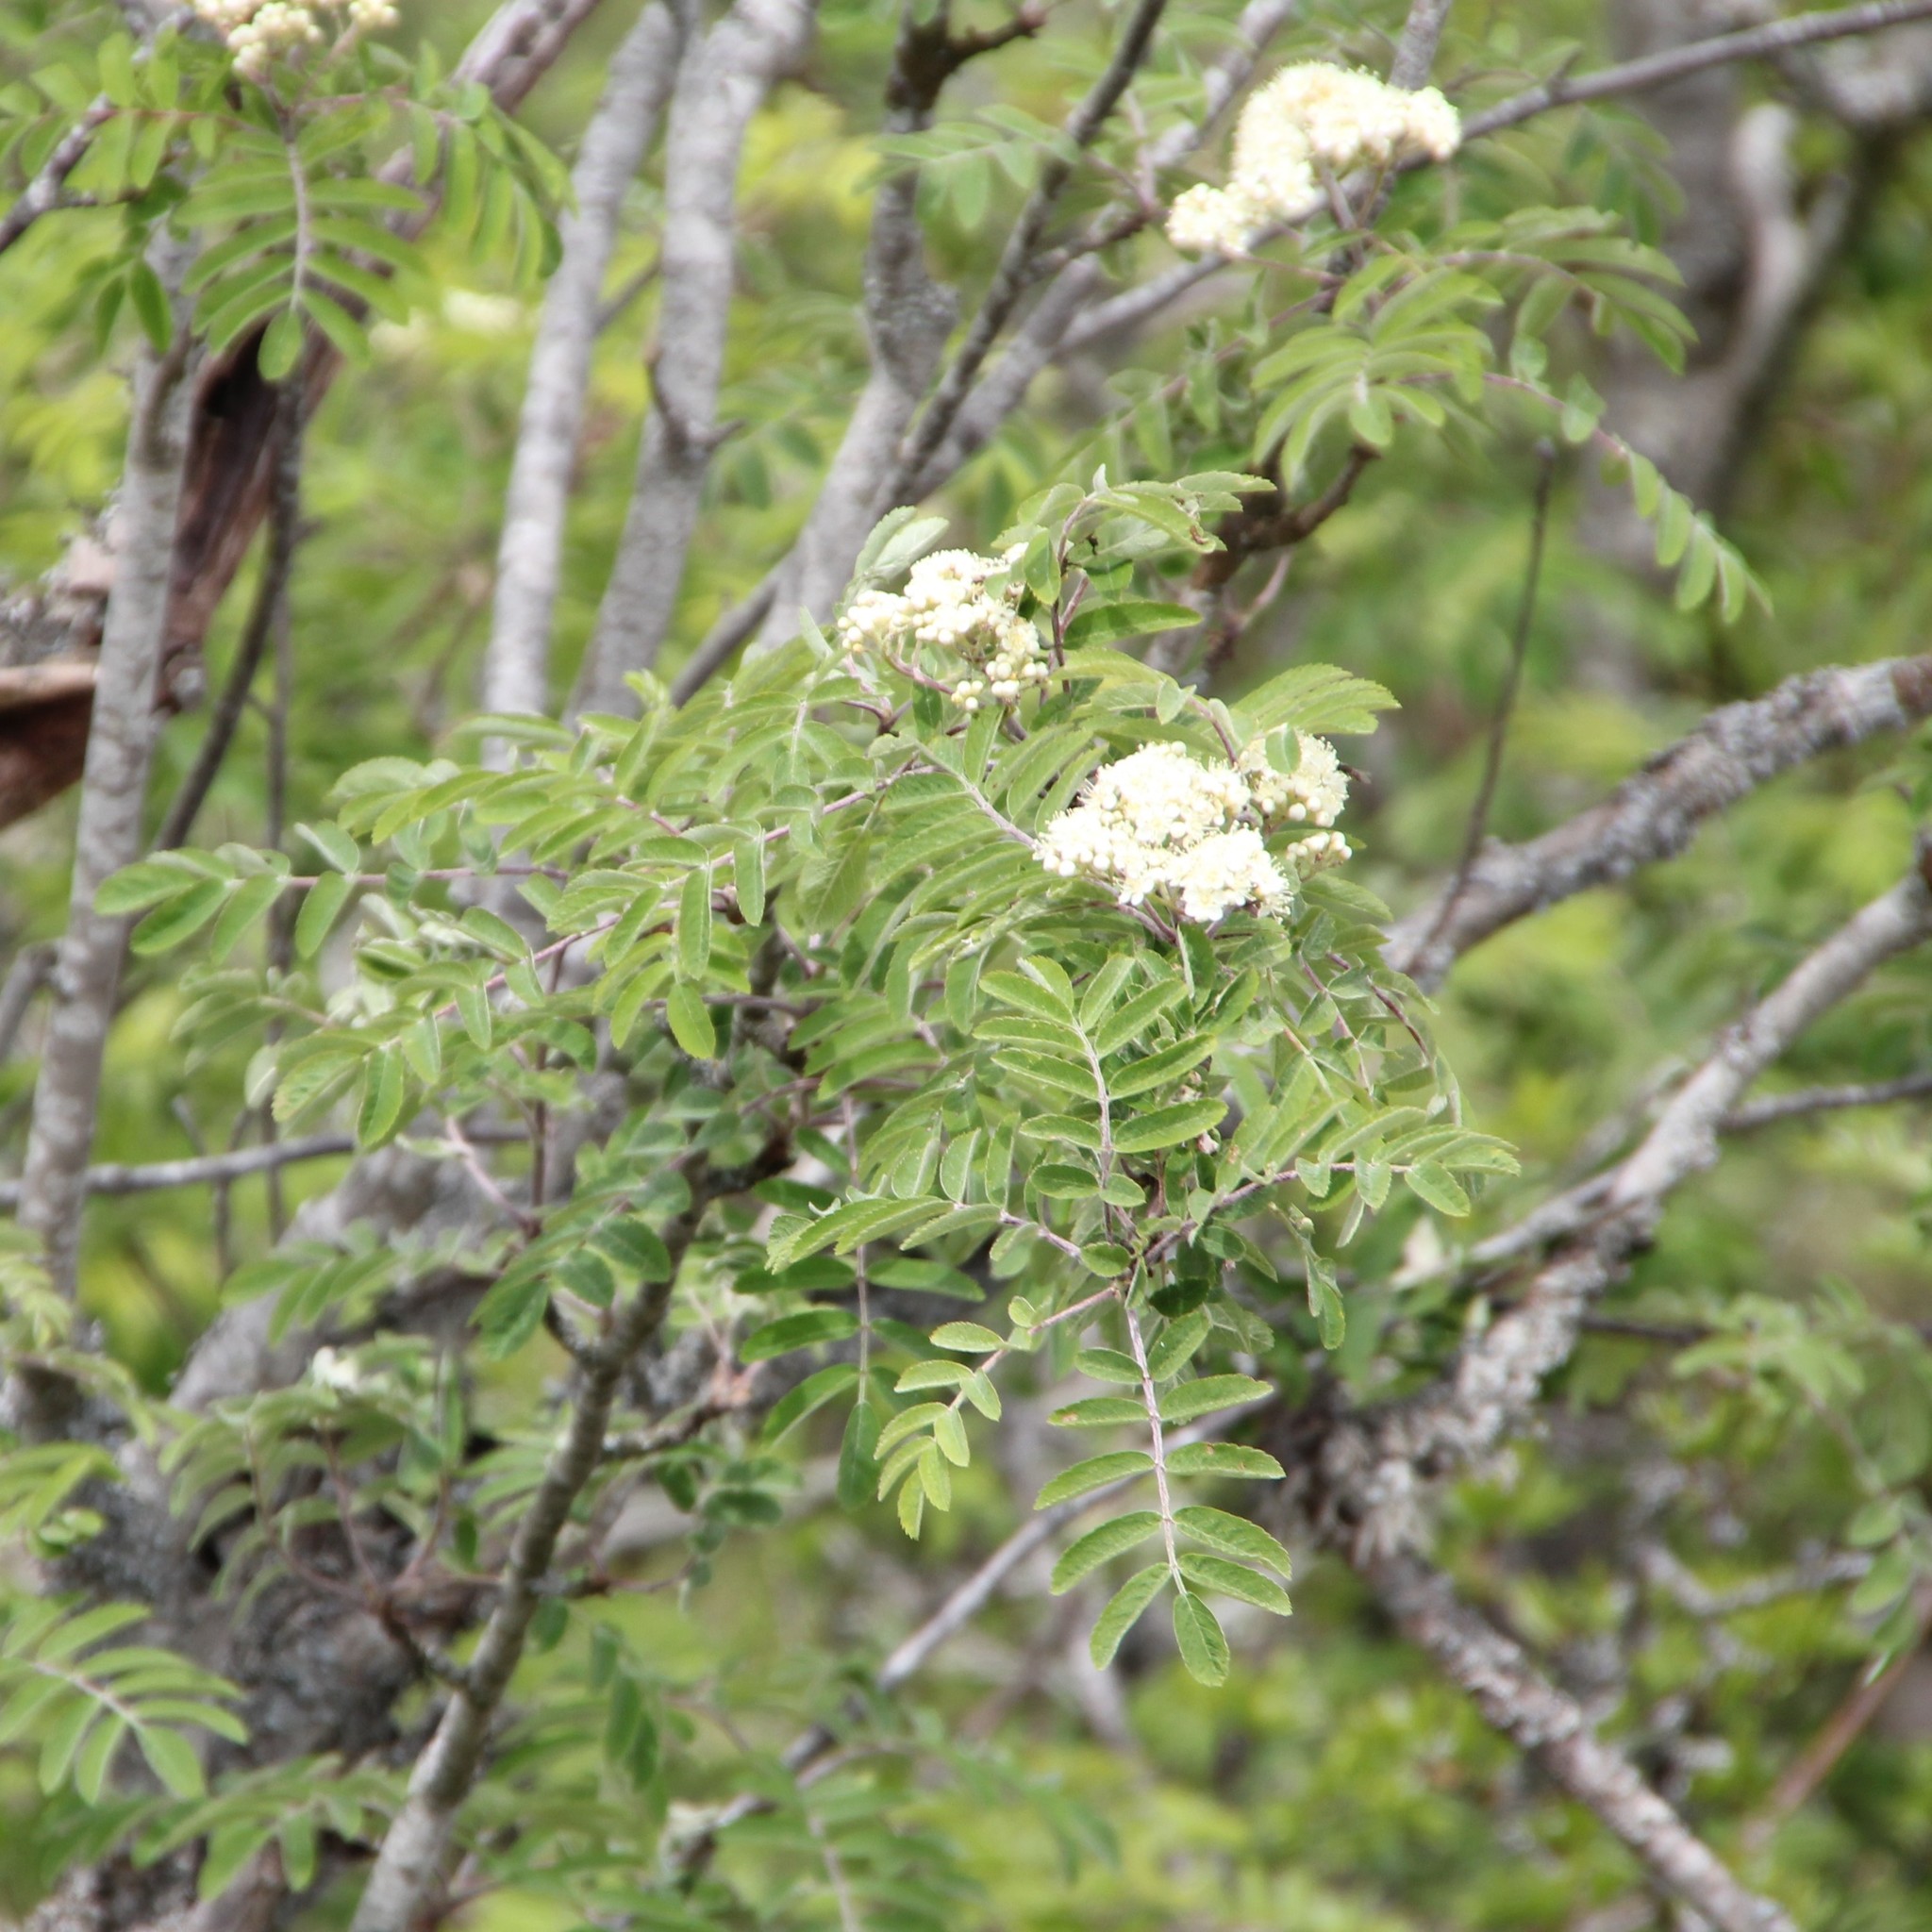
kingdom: Plantae
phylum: Tracheophyta
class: Magnoliopsida
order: Rosales
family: Rosaceae
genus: Sorbus
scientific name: Sorbus aucuparia
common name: Rowan
